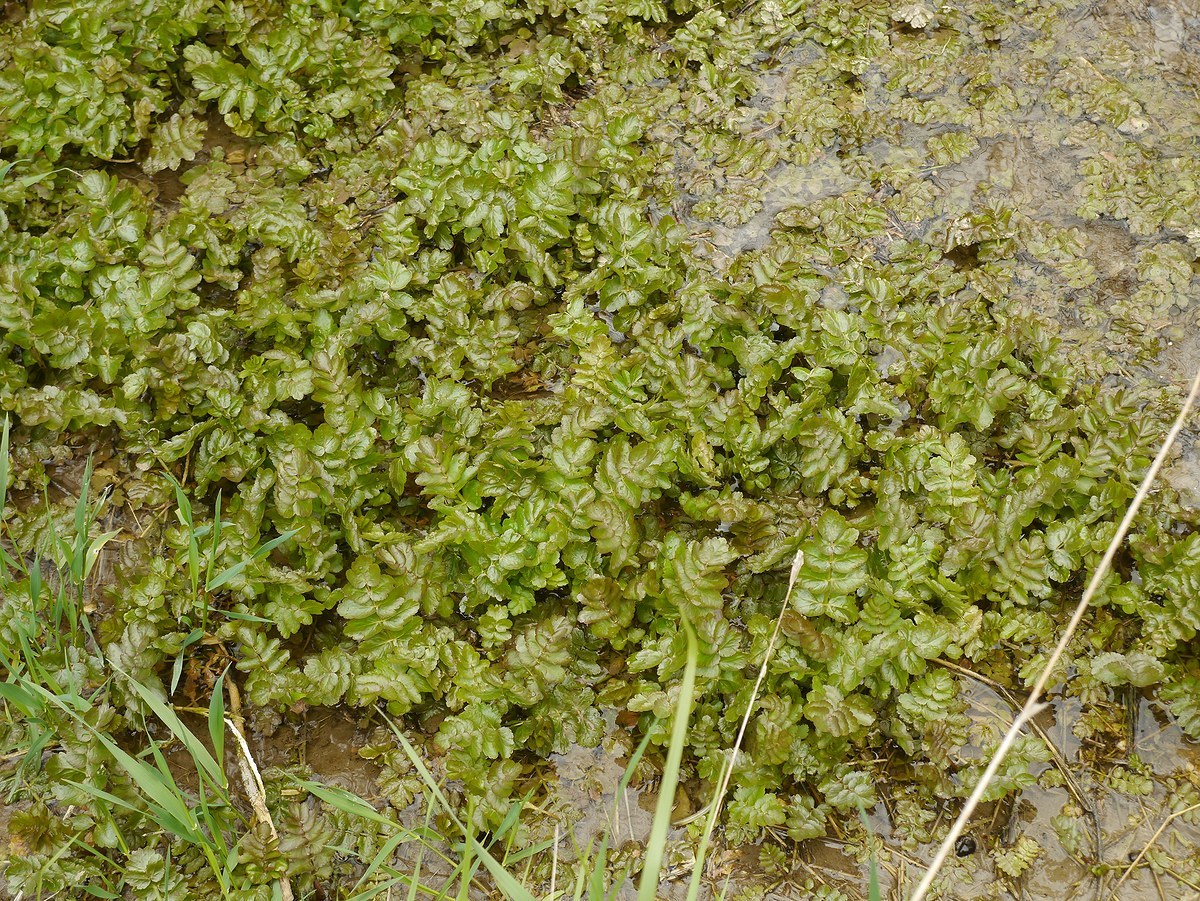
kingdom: Plantae
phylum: Tracheophyta
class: Magnoliopsida
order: Apiales
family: Apiaceae
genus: Berula
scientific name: Berula erecta
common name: Lesser water-parsnip
